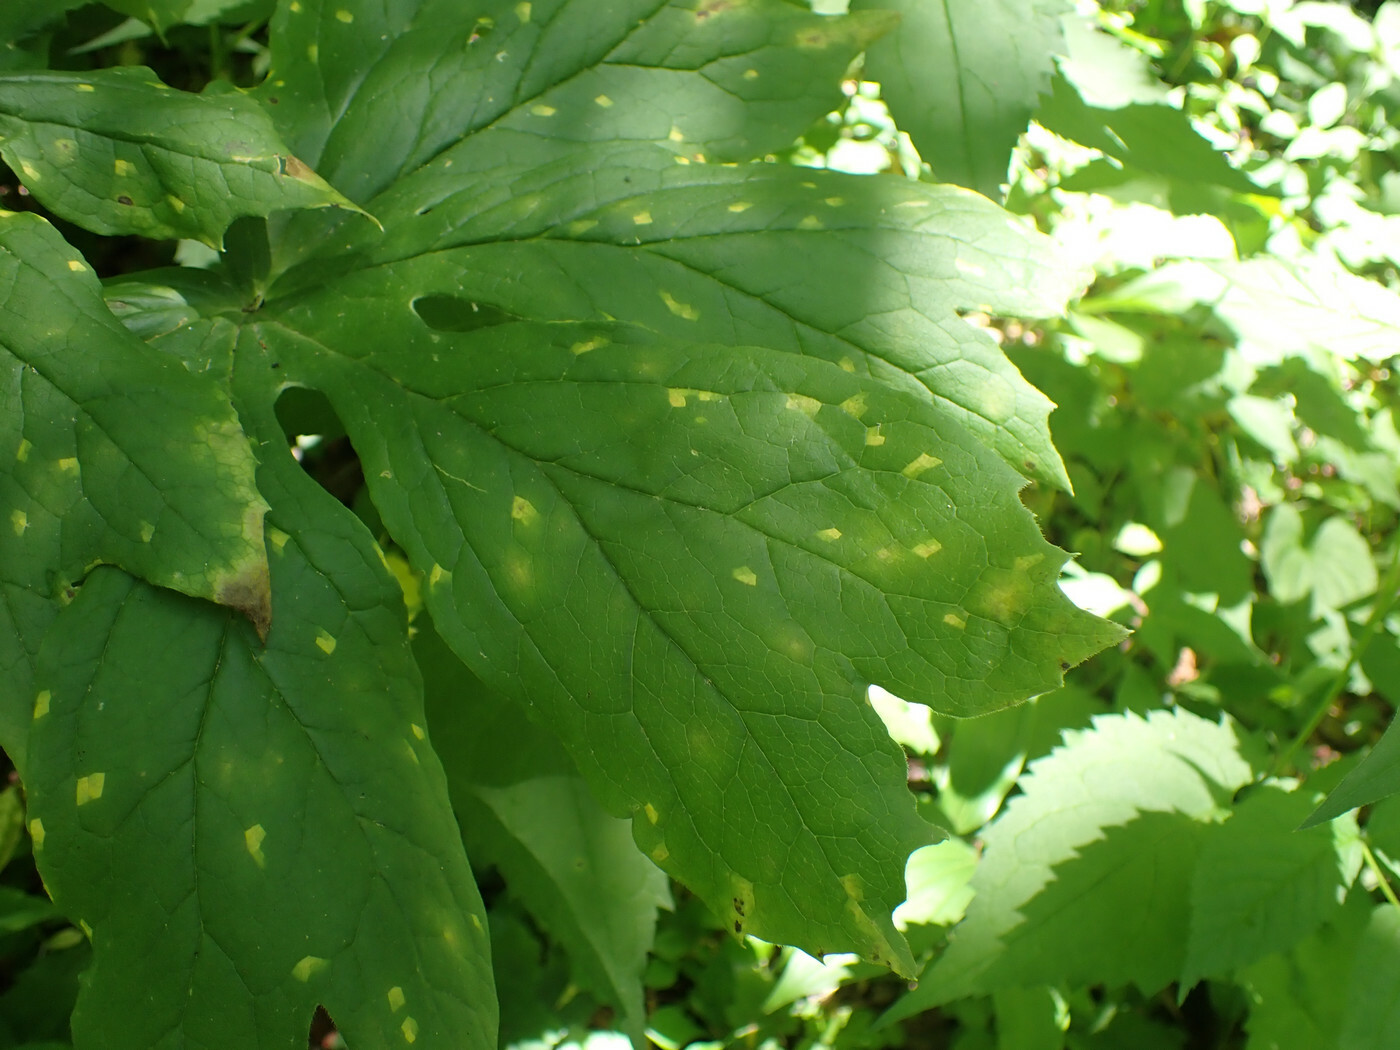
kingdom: Fungi
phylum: Basidiomycota
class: Pucciniomycetes
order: Pucciniales
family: Pucciniaceae
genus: Puccinia
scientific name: Puccinia podophylli
